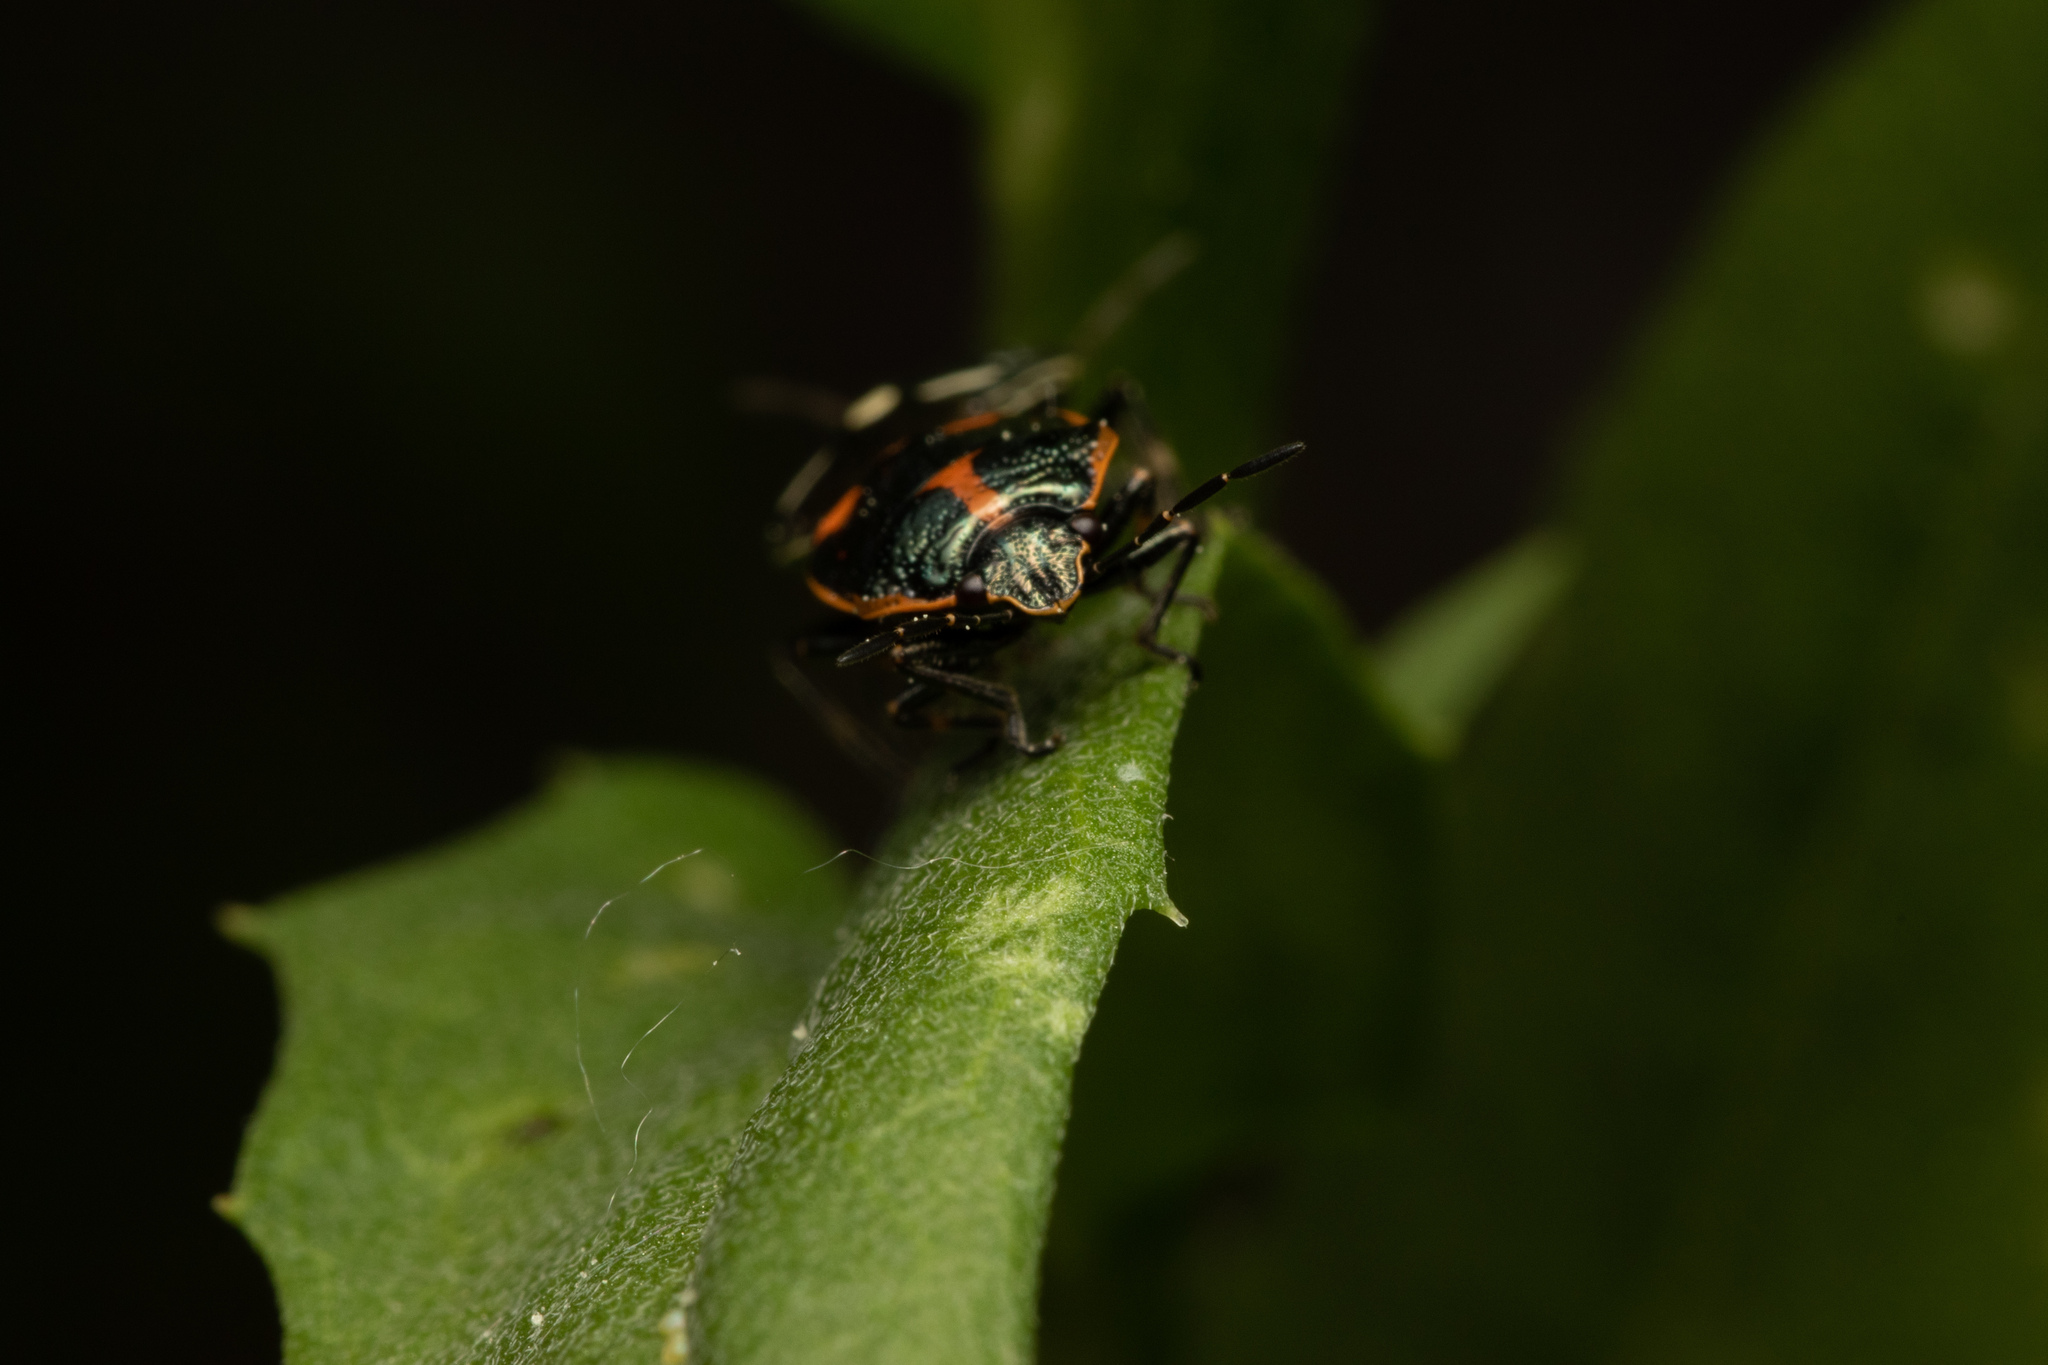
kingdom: Animalia
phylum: Arthropoda
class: Insecta
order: Hemiptera
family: Pentatomidae
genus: Eurydema
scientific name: Eurydema oleracea
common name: Cabbage bug
